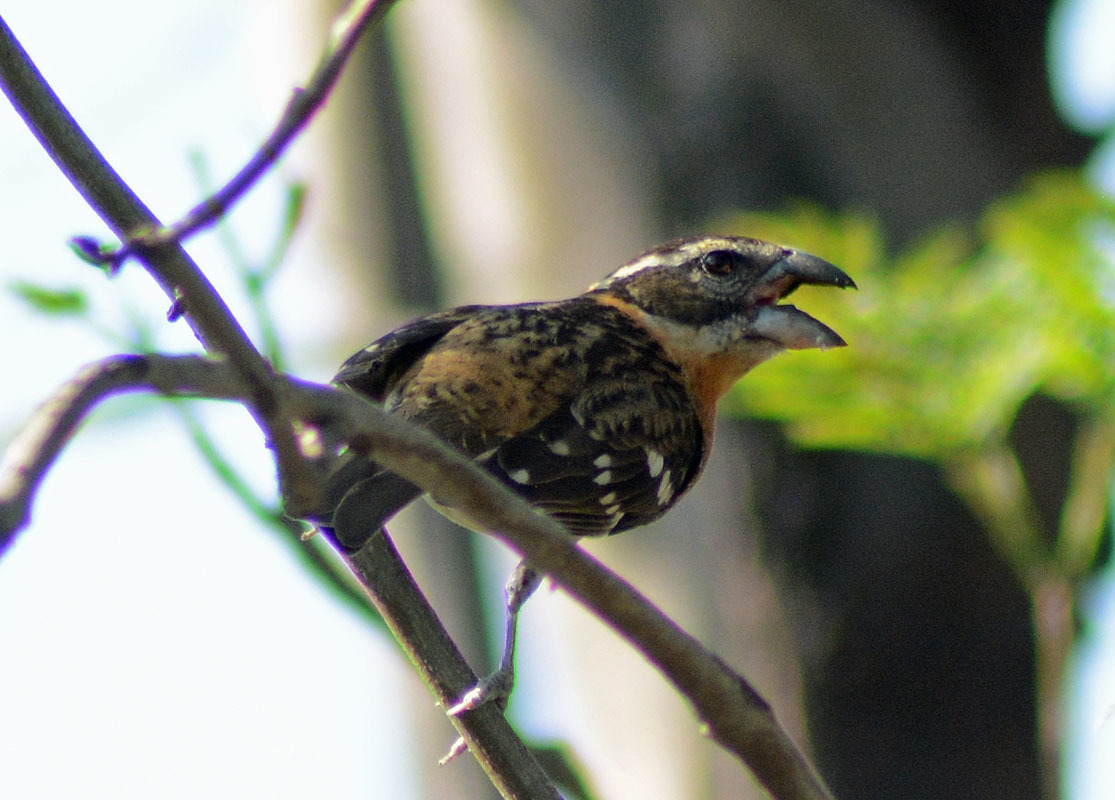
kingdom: Animalia
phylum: Chordata
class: Aves
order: Passeriformes
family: Cardinalidae
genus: Pheucticus
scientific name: Pheucticus melanocephalus
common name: Black-headed grosbeak
